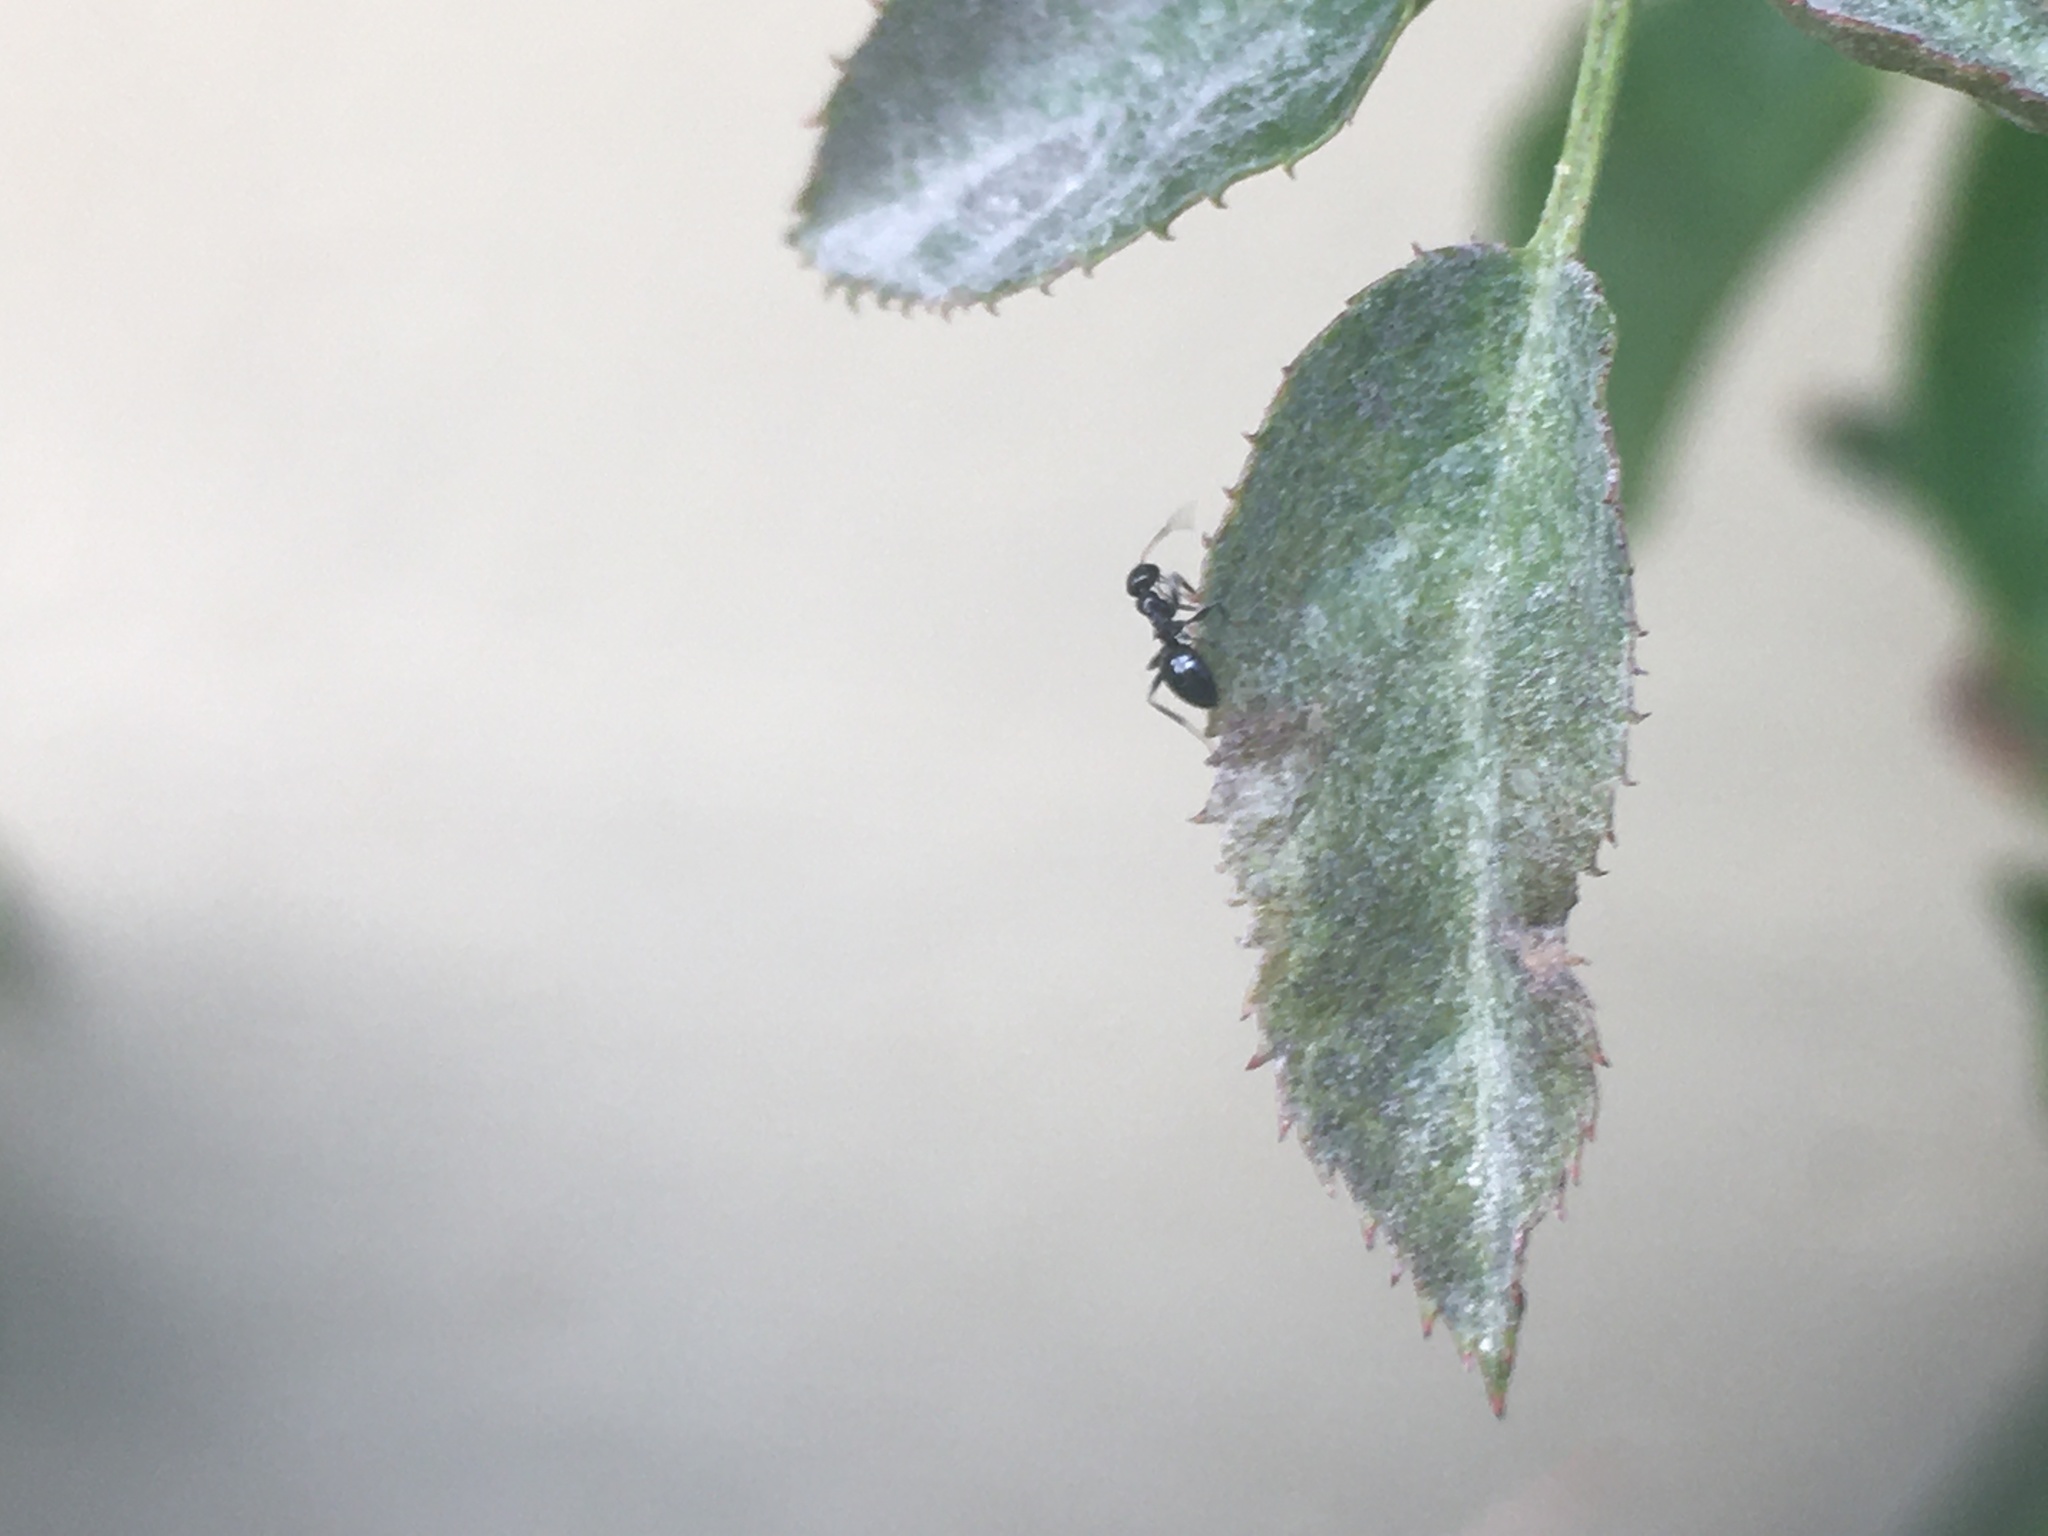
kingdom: Animalia
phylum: Arthropoda
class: Insecta
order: Hymenoptera
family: Formicidae
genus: Lepisiota
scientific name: Lepisiota capensis
